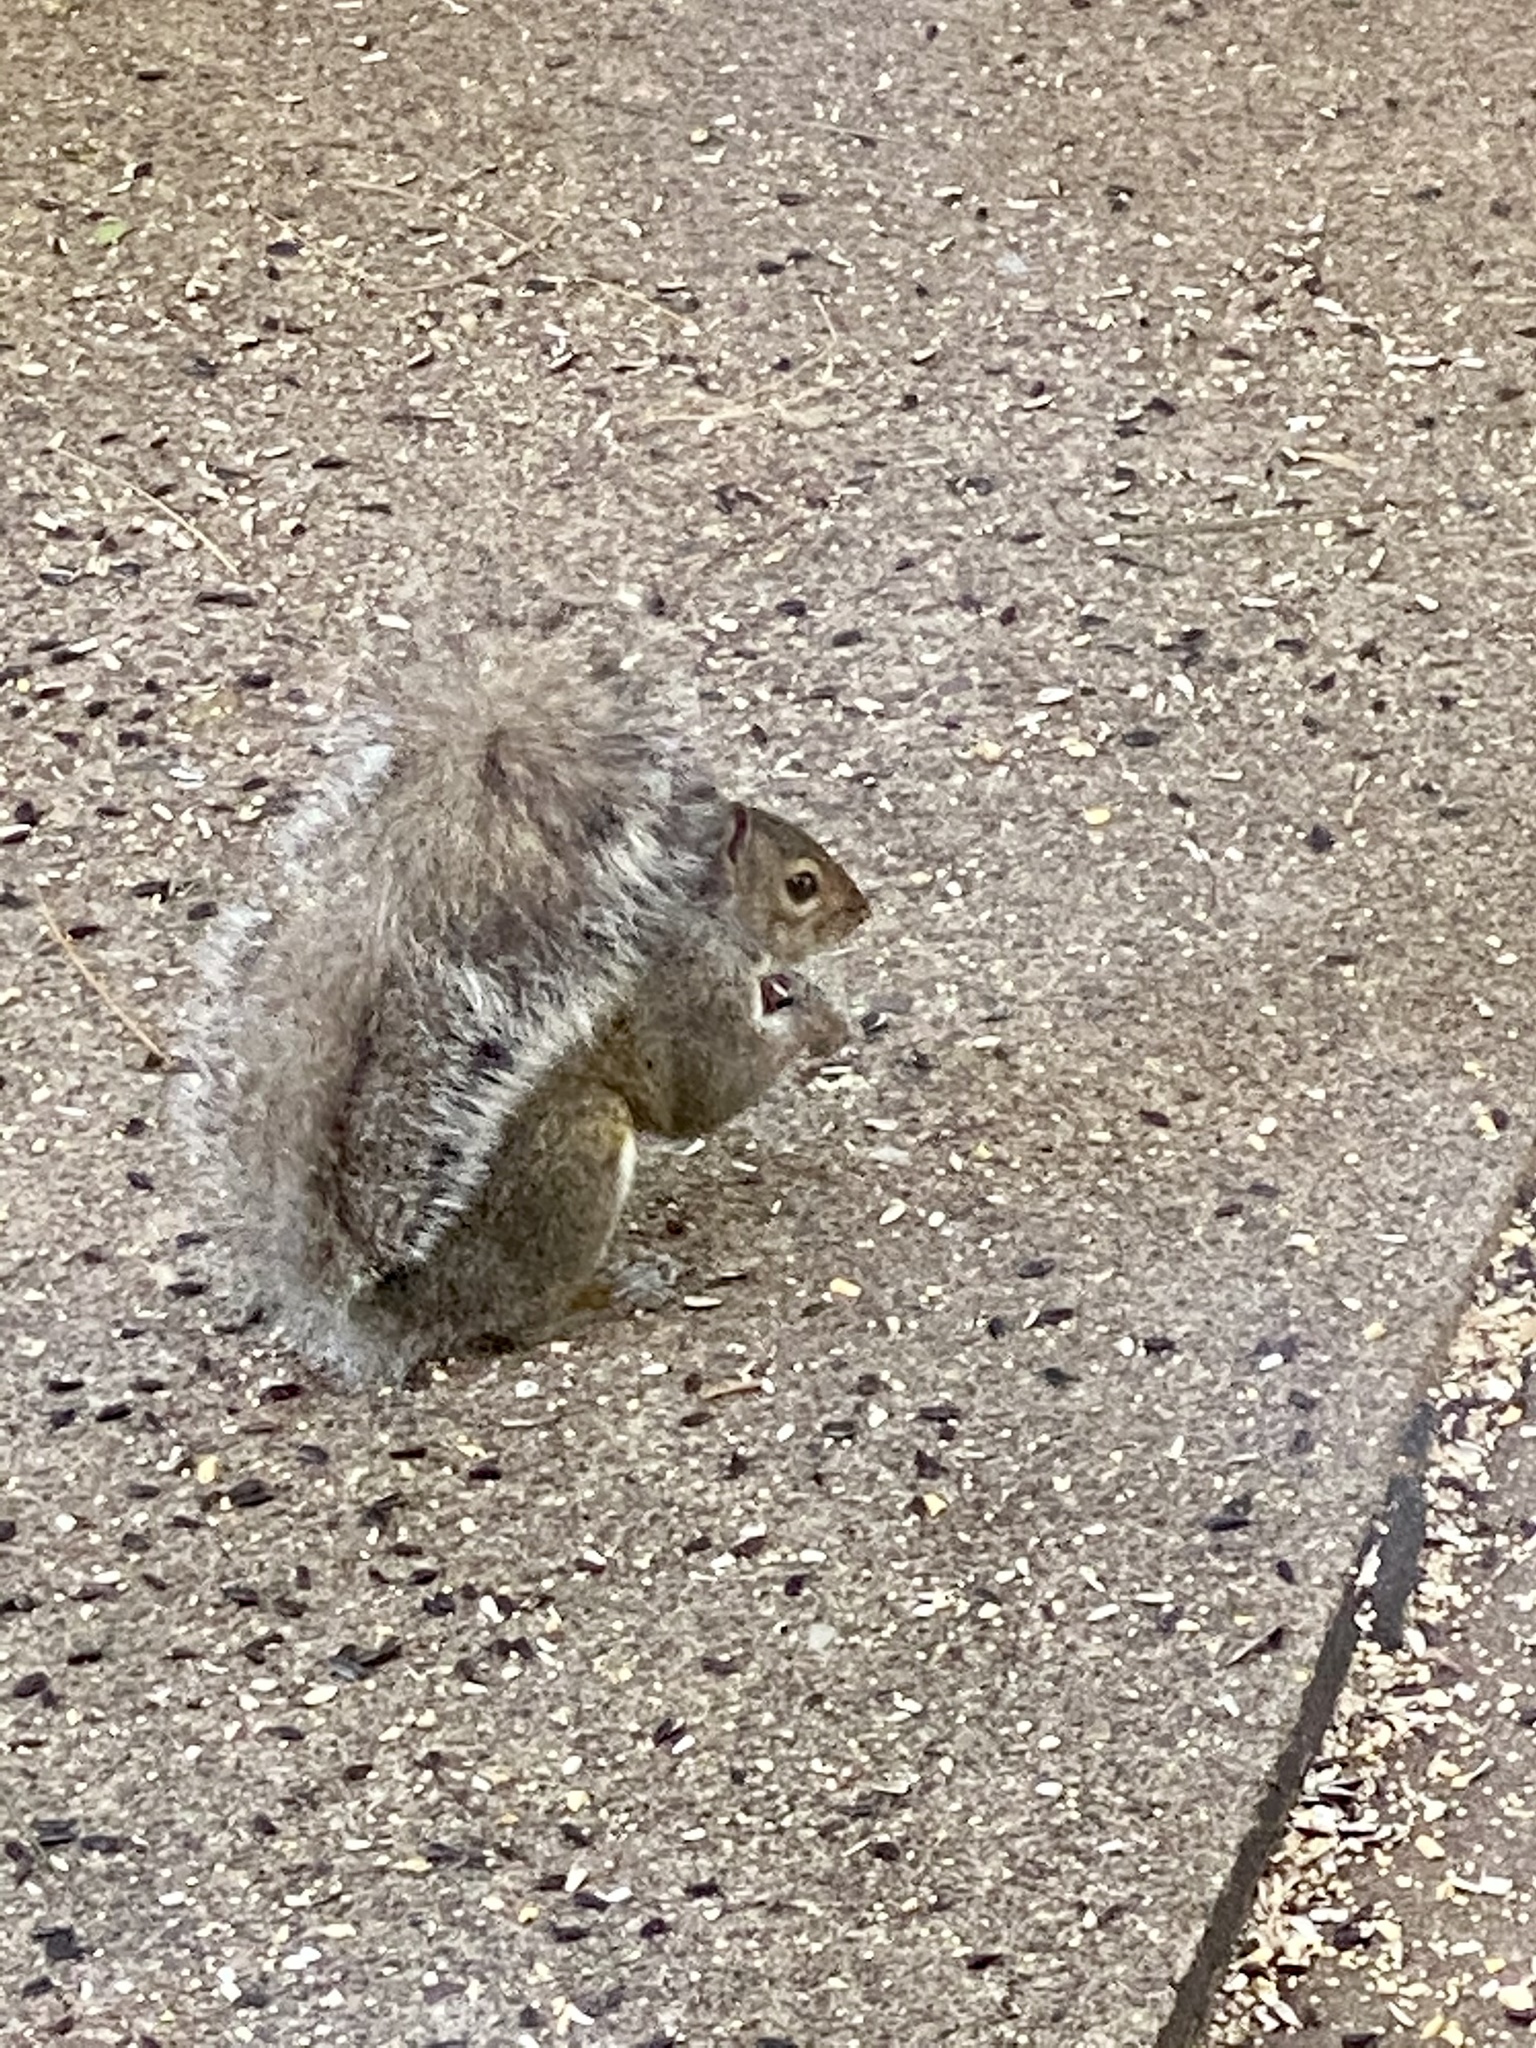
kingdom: Animalia
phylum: Chordata
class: Mammalia
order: Rodentia
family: Sciuridae
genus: Sciurus
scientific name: Sciurus carolinensis
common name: Eastern gray squirrel
